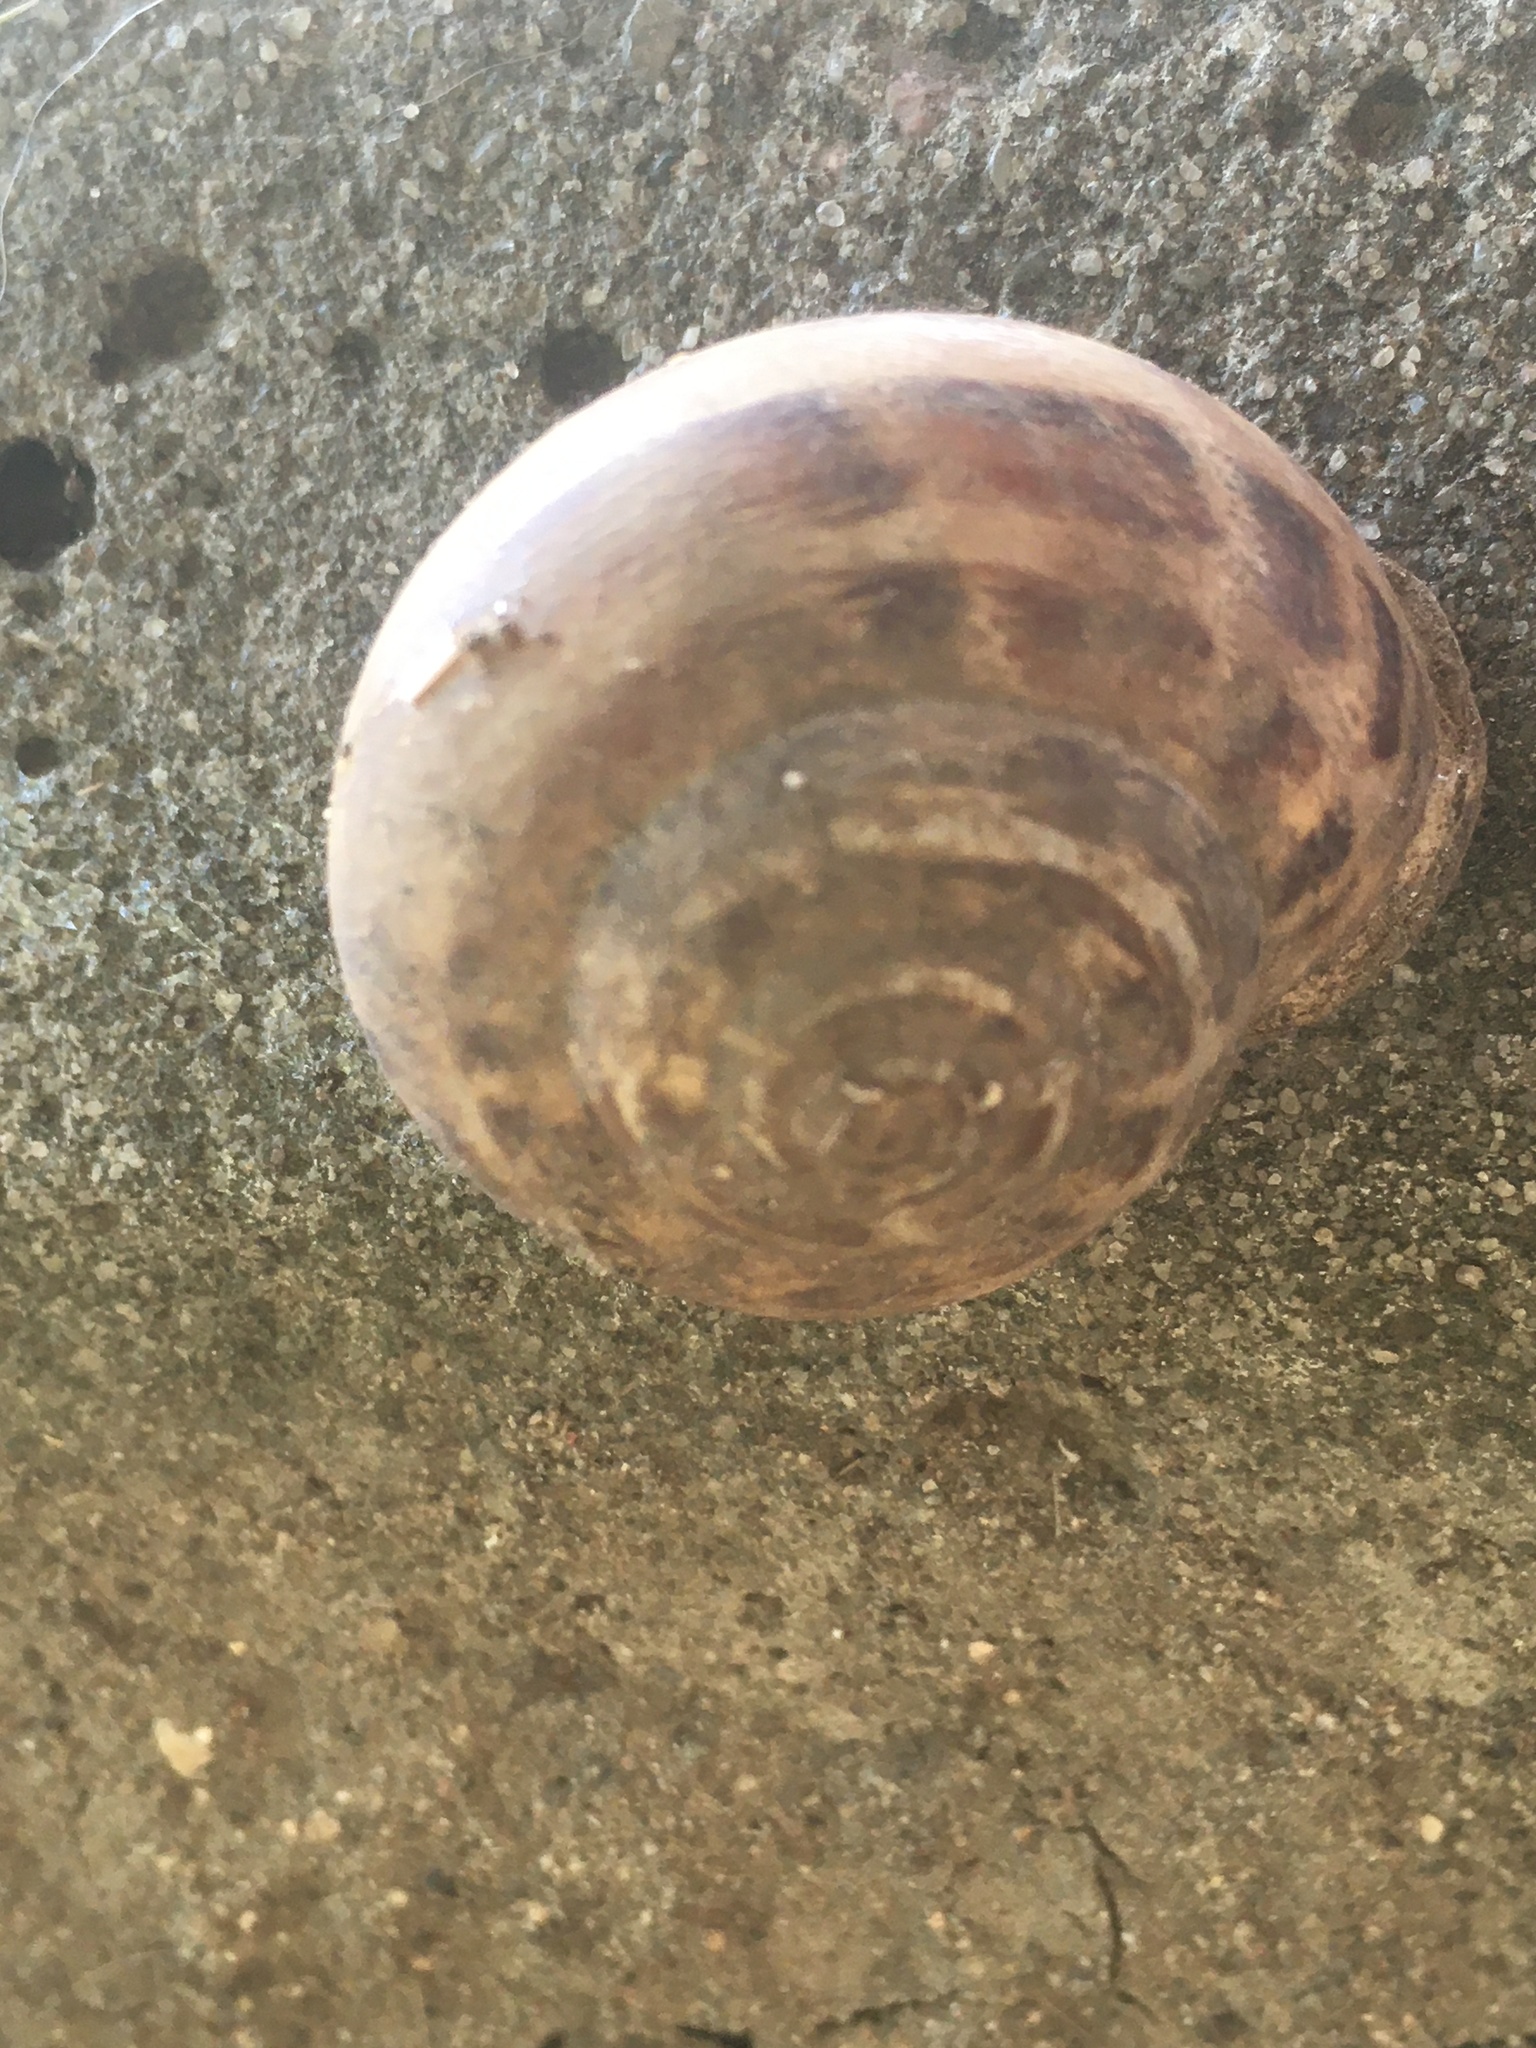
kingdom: Animalia
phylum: Mollusca
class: Gastropoda
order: Stylommatophora
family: Helicidae
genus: Eobania
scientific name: Eobania vermiculata
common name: Chocolateband snail
